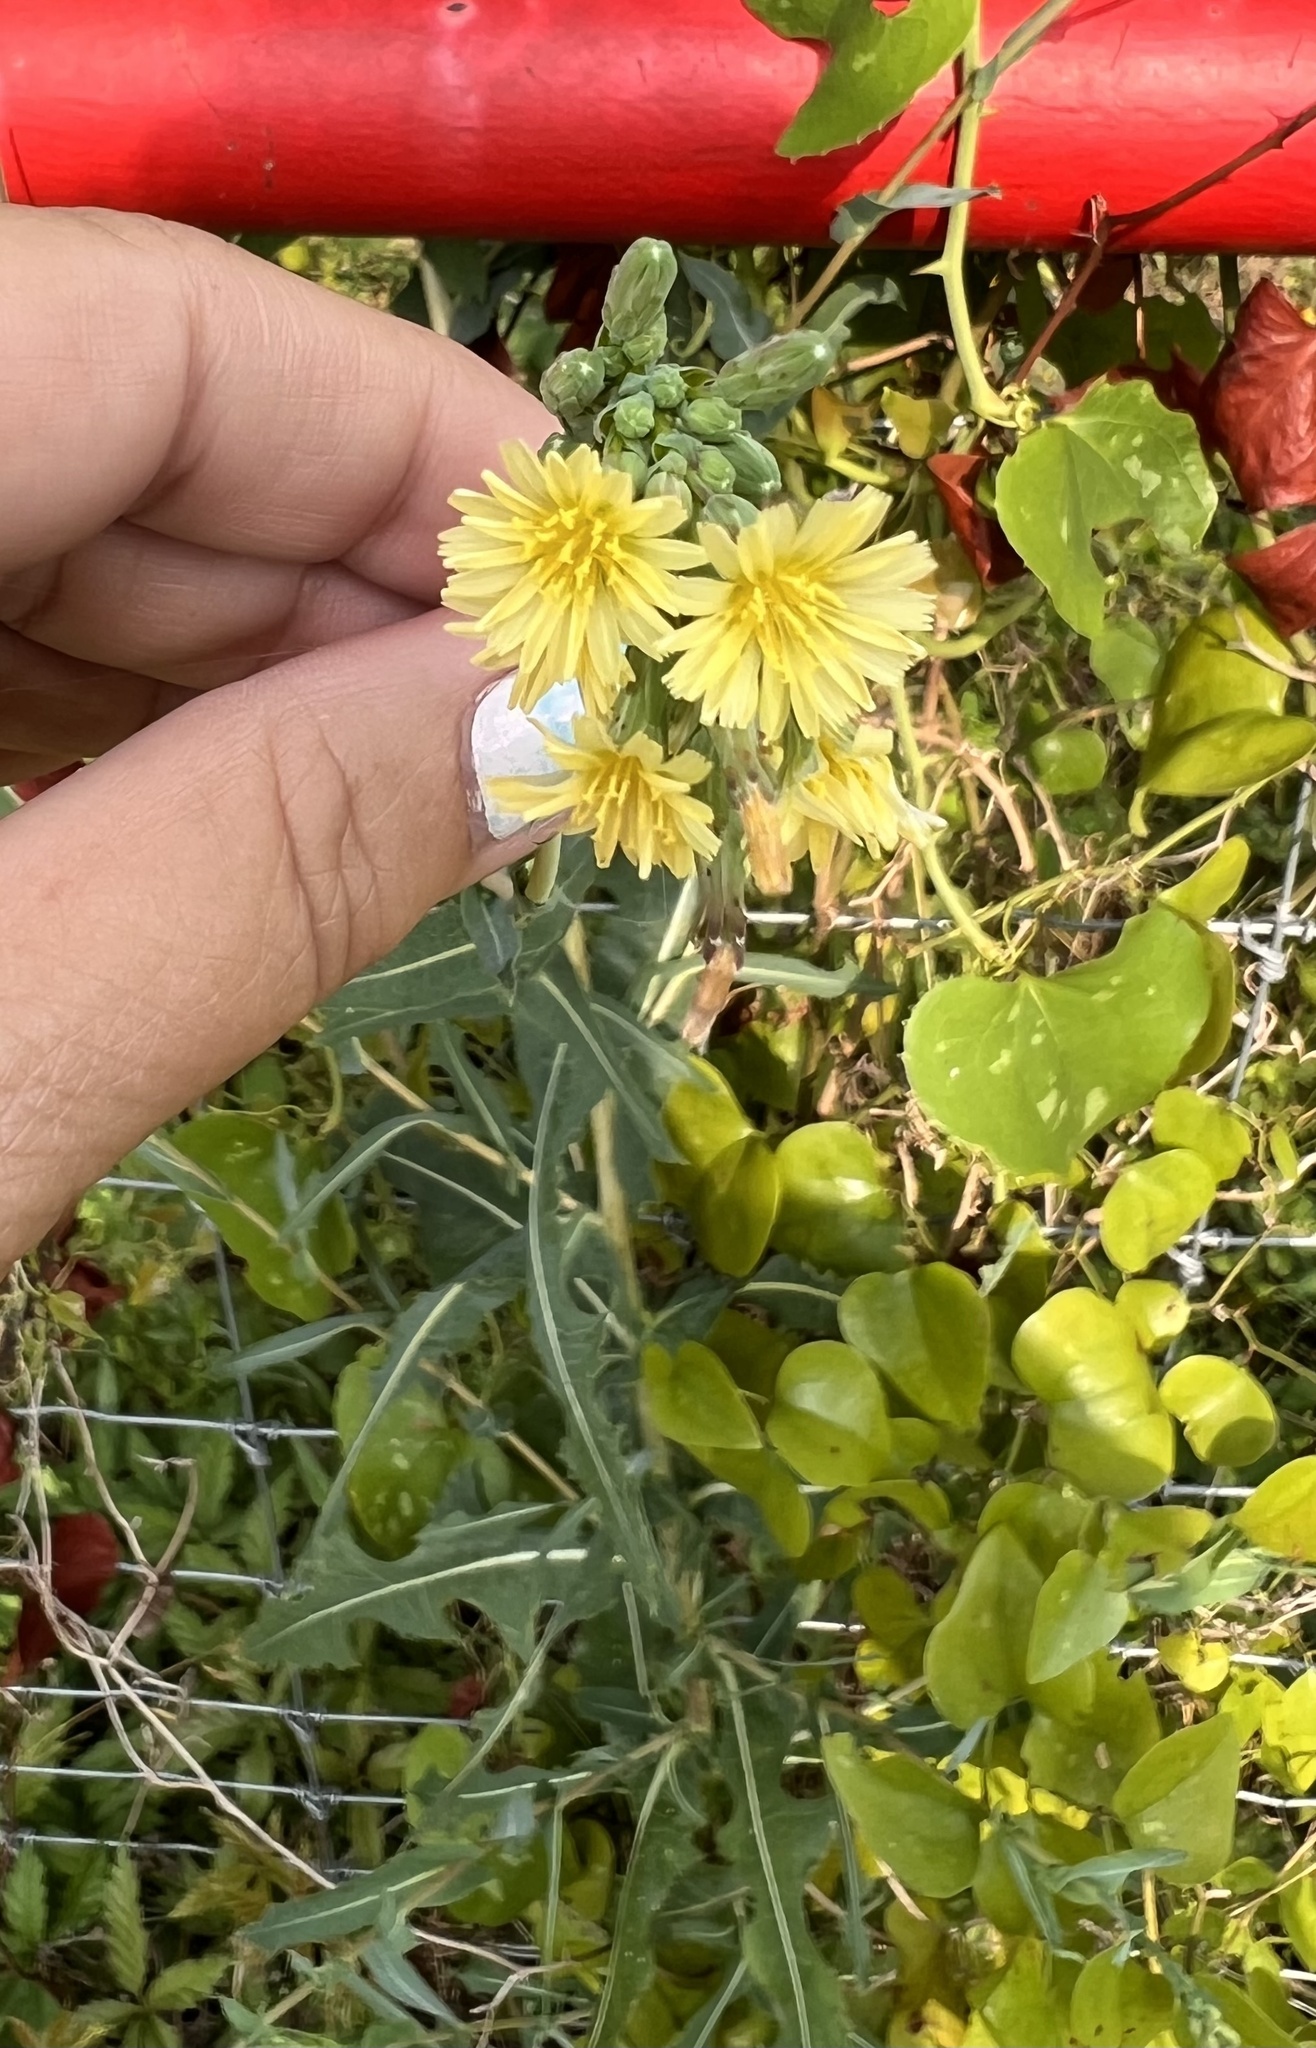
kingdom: Plantae
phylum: Tracheophyta
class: Magnoliopsida
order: Asterales
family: Asteraceae
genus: Lactuca
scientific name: Lactuca serriola
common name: Prickly lettuce
